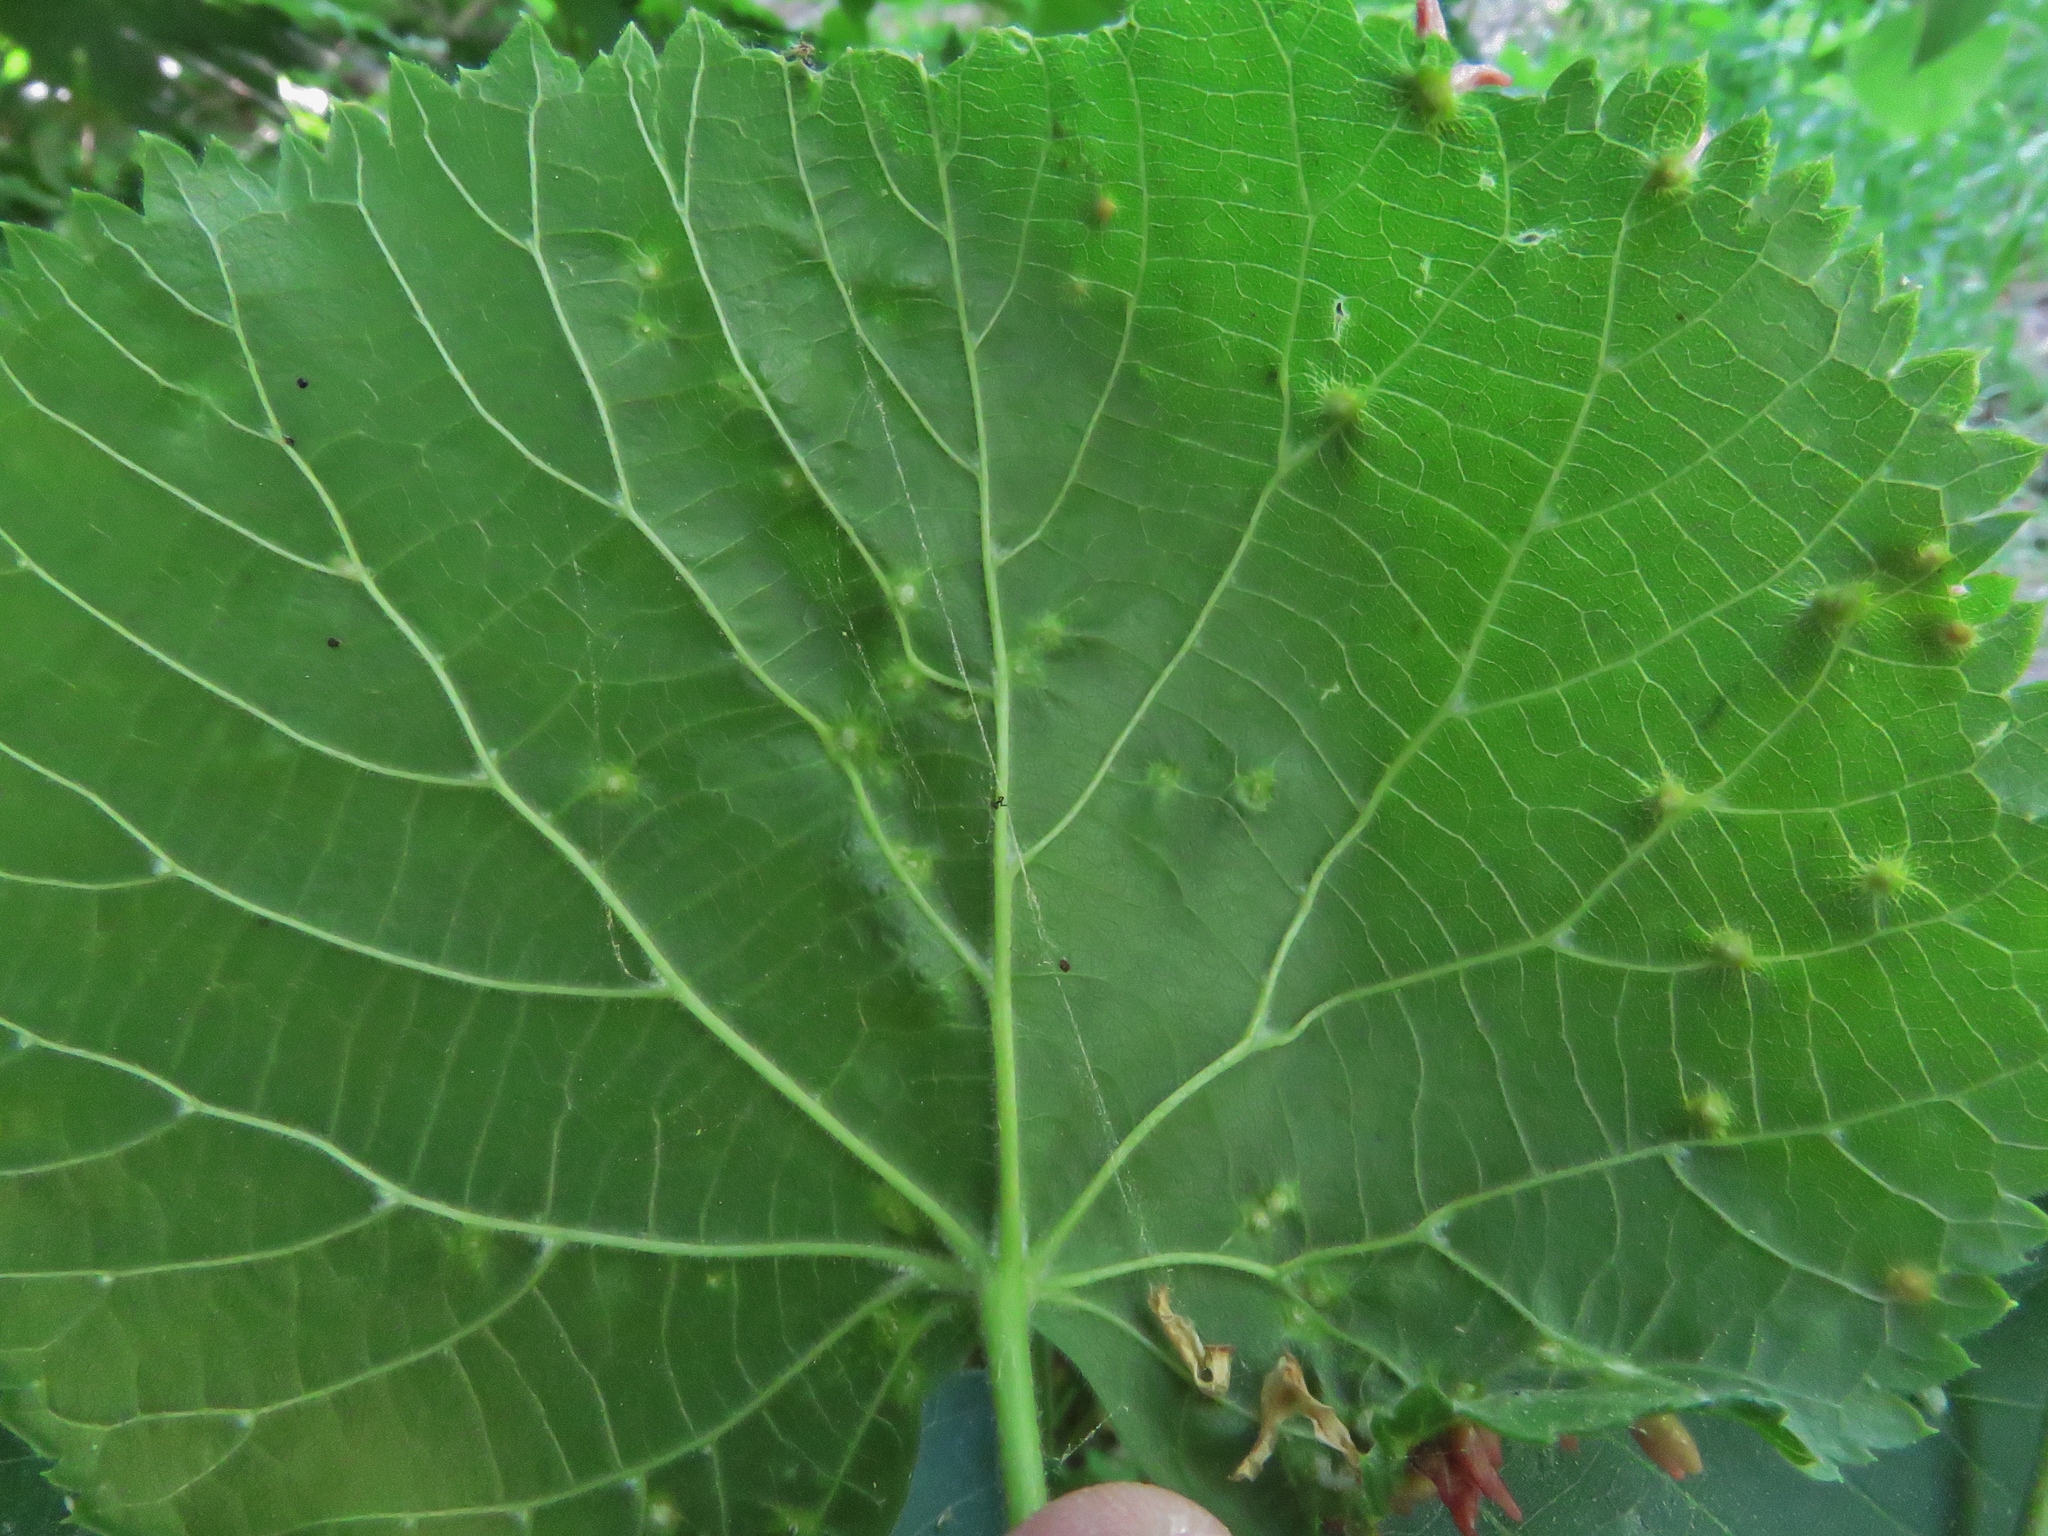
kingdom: Animalia
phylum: Arthropoda
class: Arachnida
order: Trombidiformes
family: Eriophyidae
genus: Eriophyes
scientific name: Eriophyes tiliae
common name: Red nail gall mite
